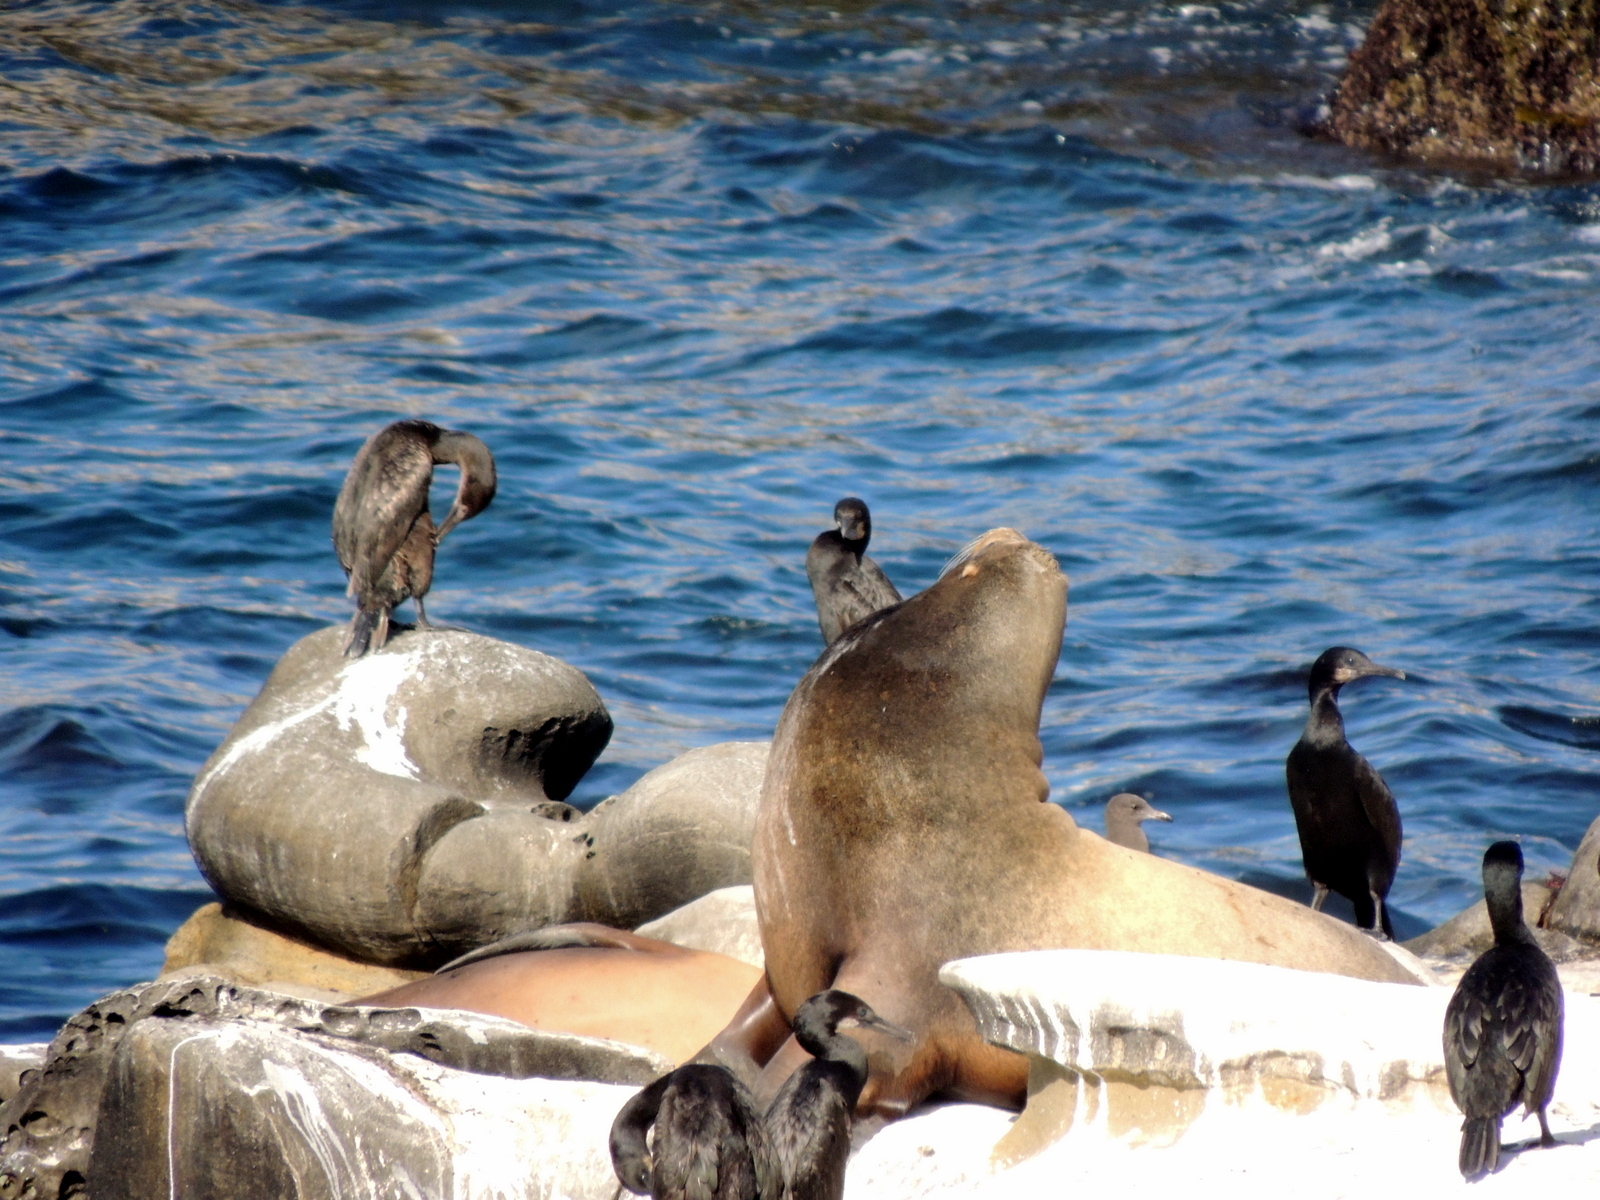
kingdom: Animalia
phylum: Chordata
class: Mammalia
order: Carnivora
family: Otariidae
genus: Zalophus
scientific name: Zalophus californianus
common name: California sea lion
